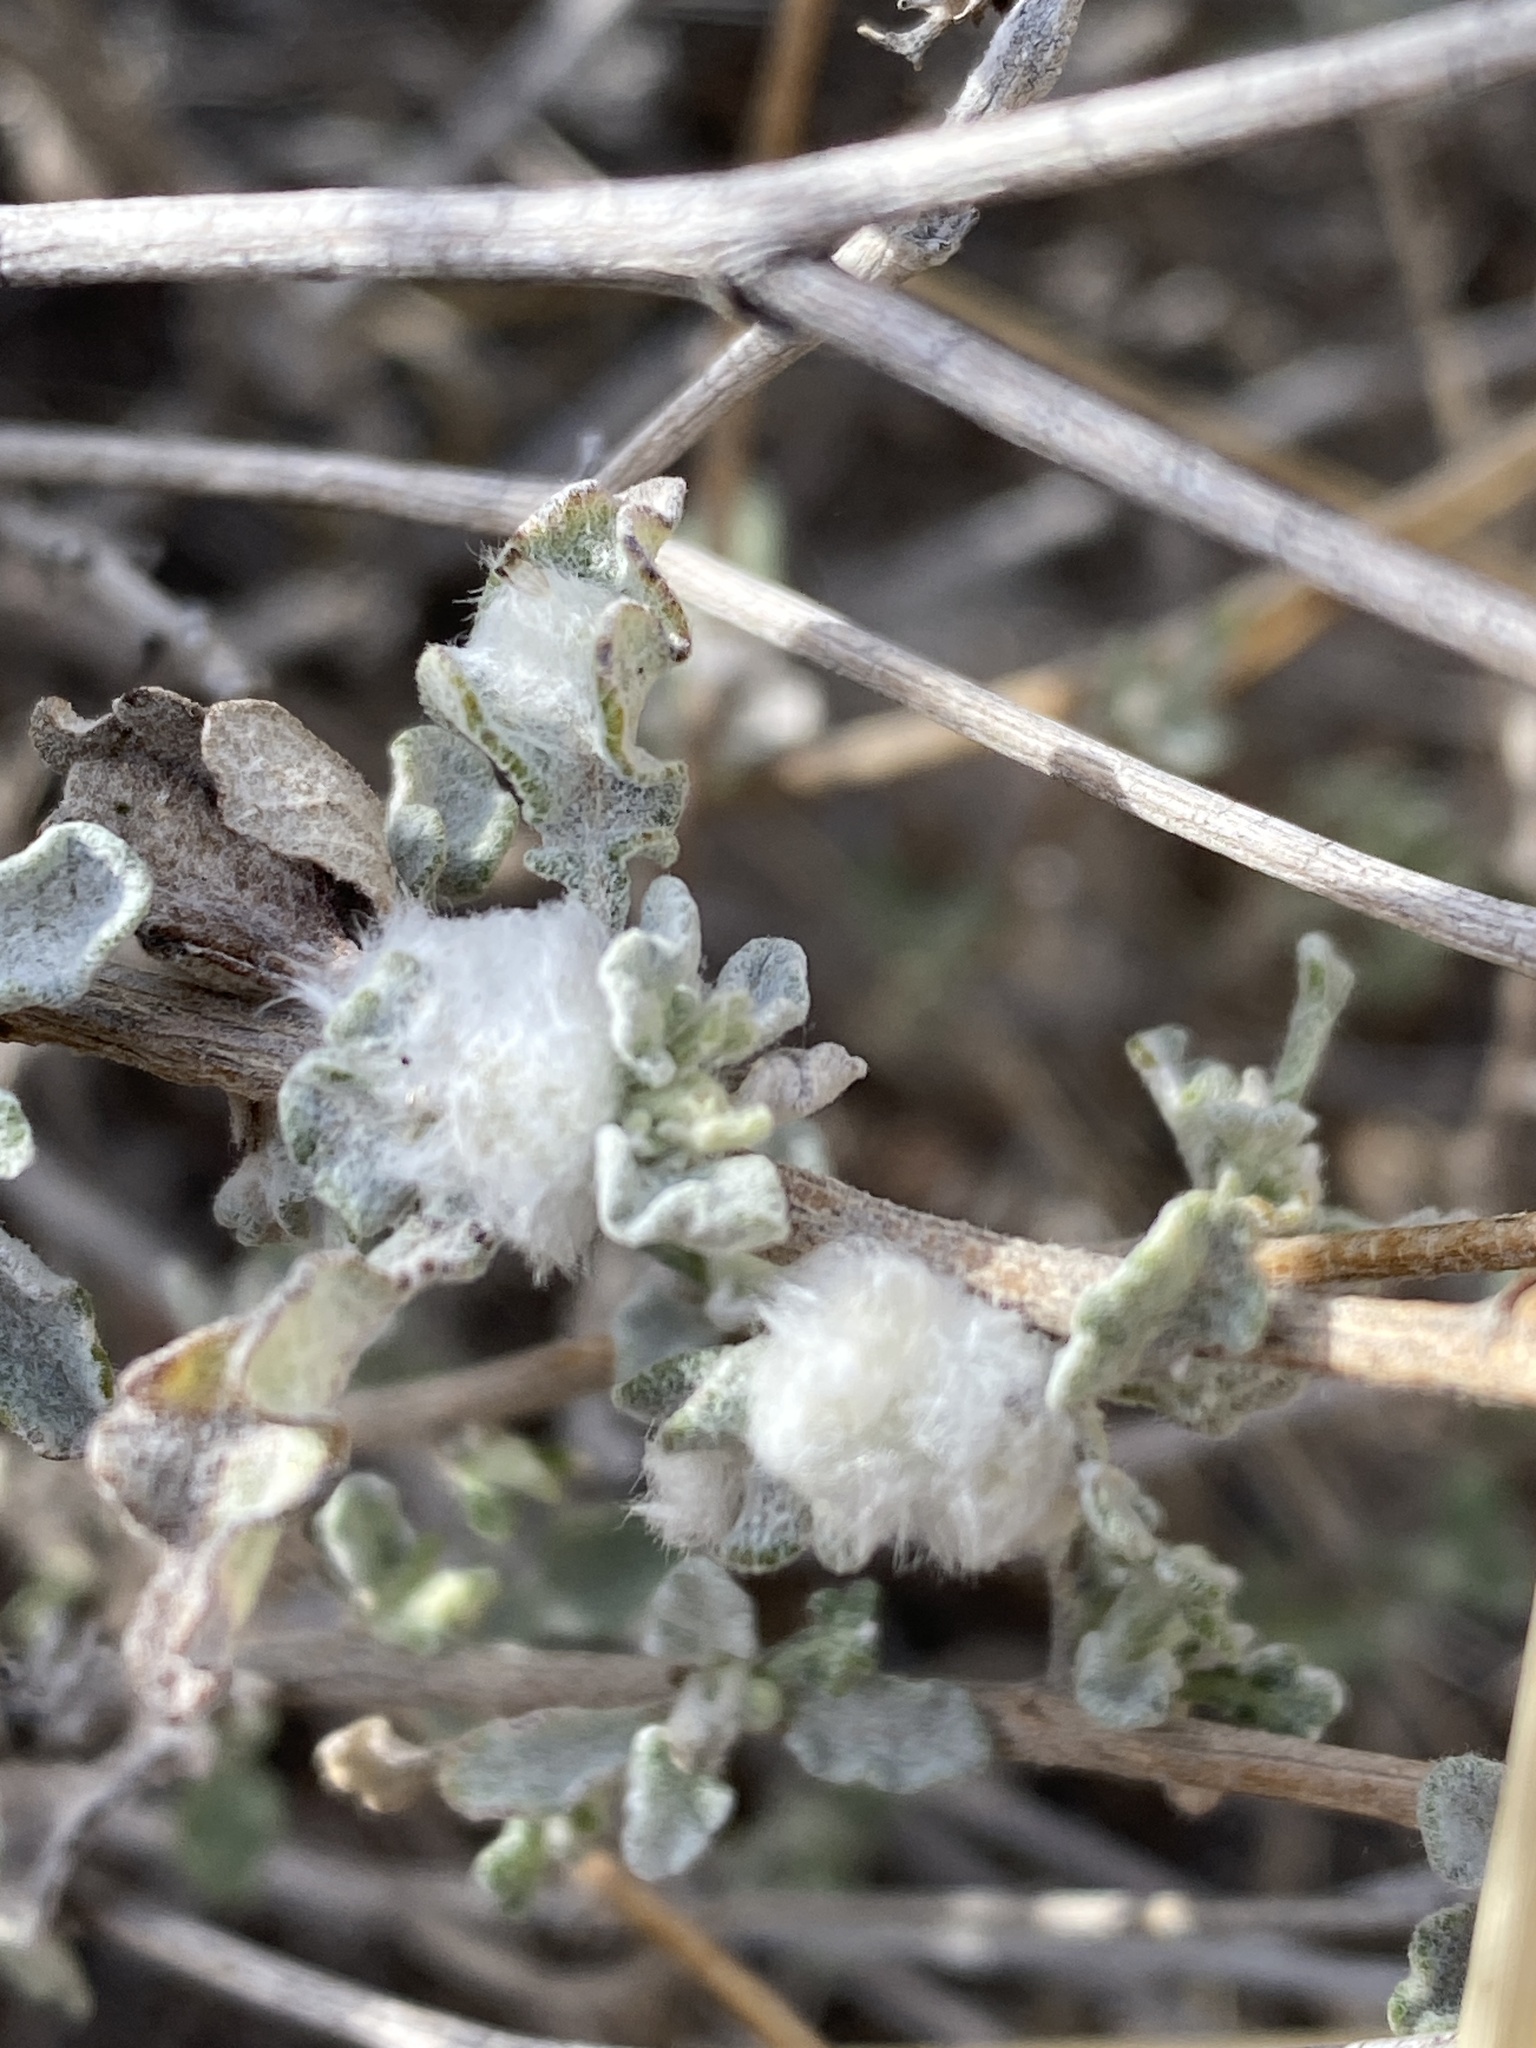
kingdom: Animalia
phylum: Arthropoda
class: Insecta
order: Diptera
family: Cecidomyiidae
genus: Contarinia
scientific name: Contarinia partheniicola
